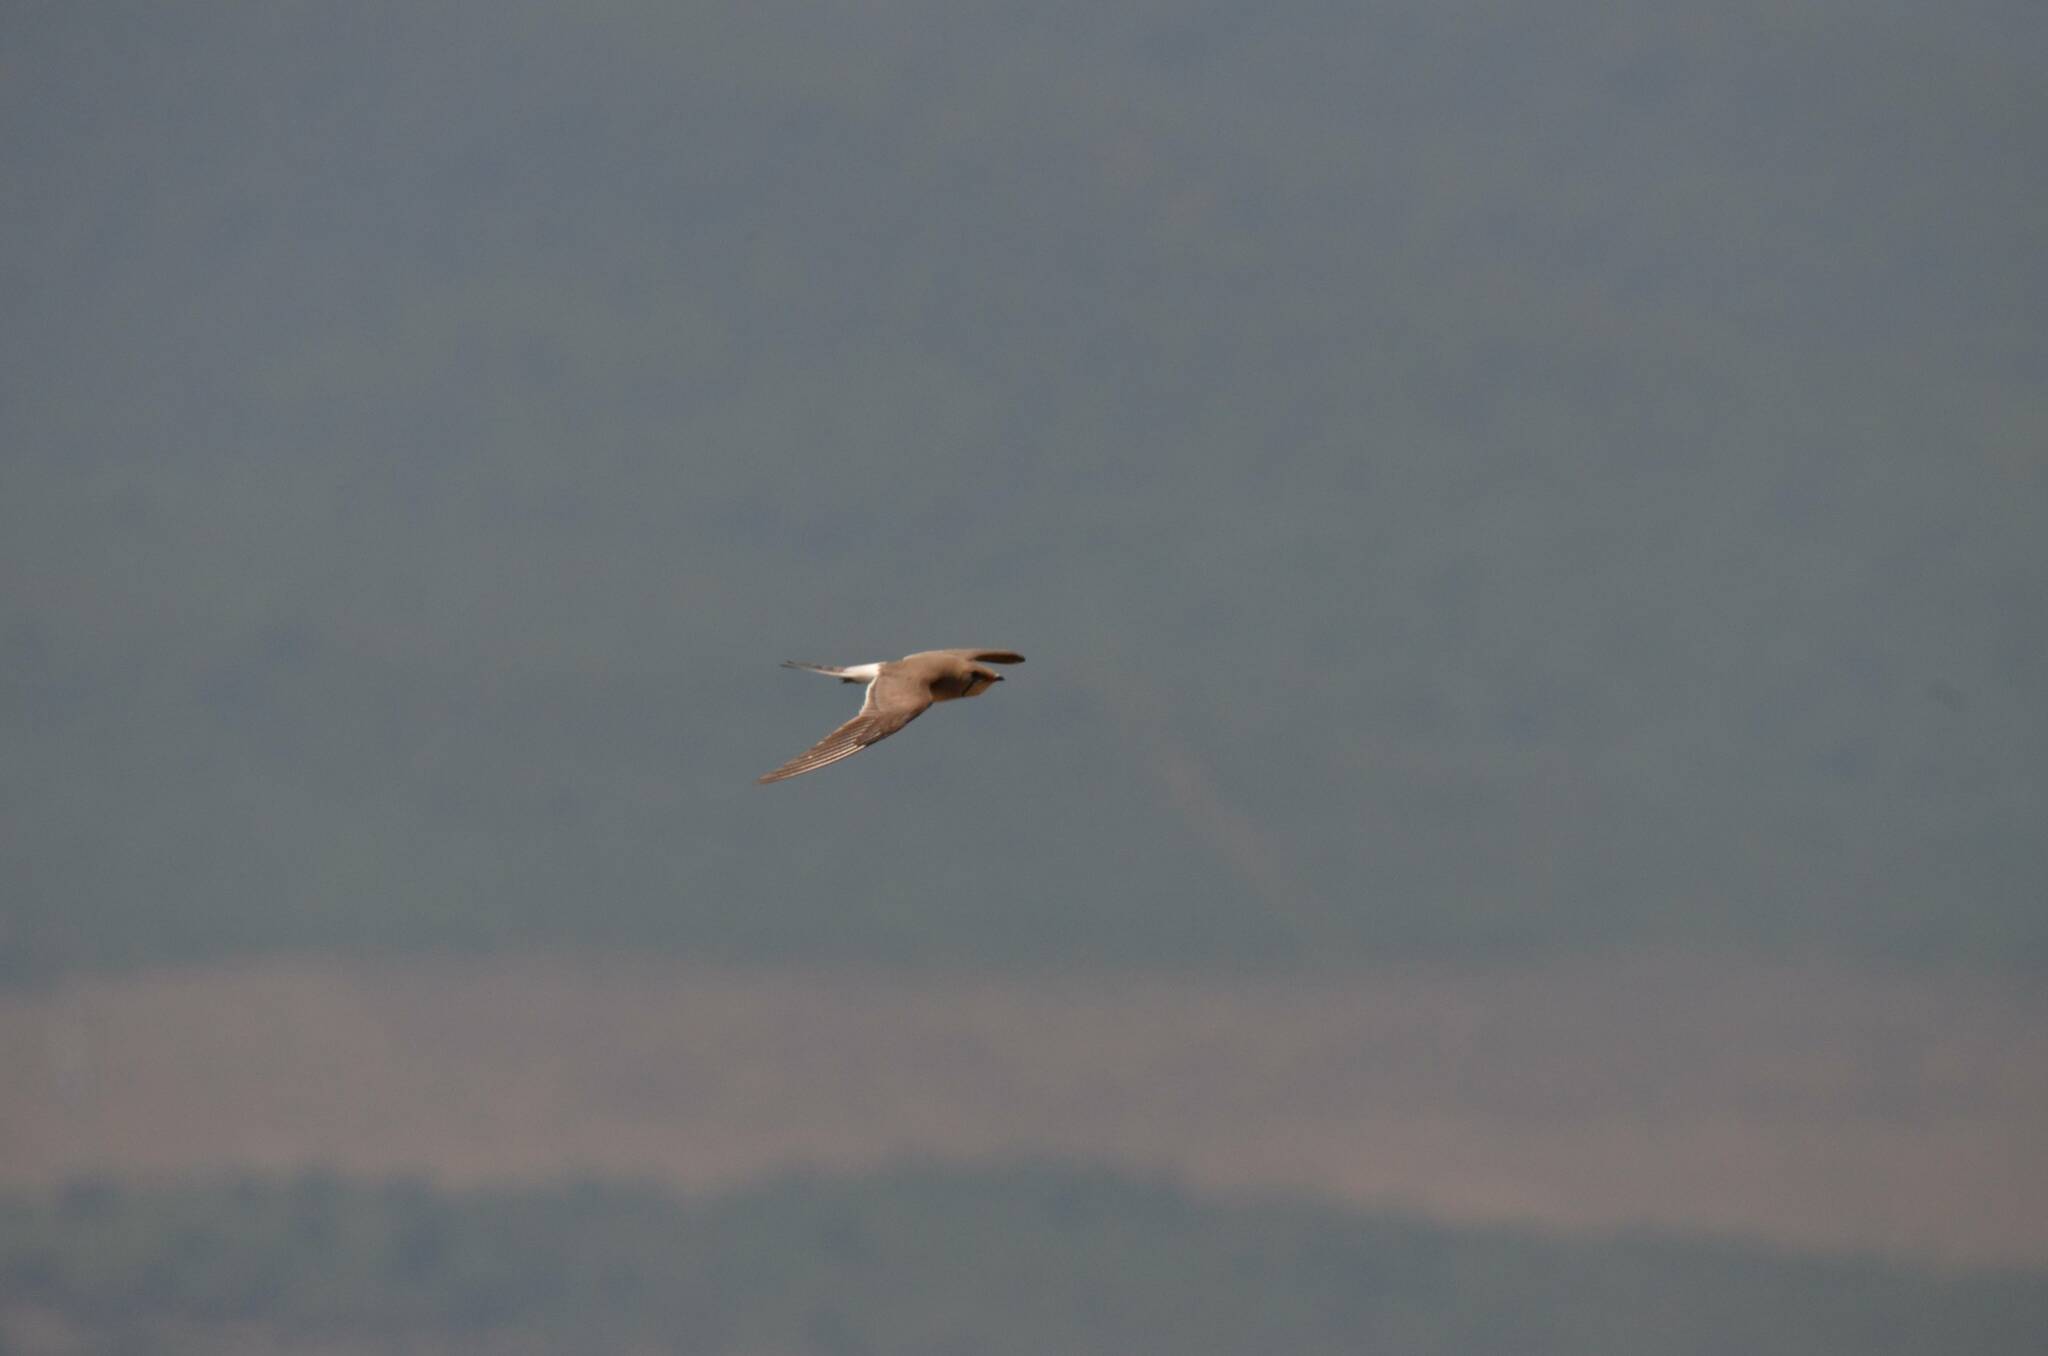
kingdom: Animalia
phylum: Chordata
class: Aves
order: Charadriiformes
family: Glareolidae
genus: Glareola
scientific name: Glareola pratincola
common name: Collared pratincole
